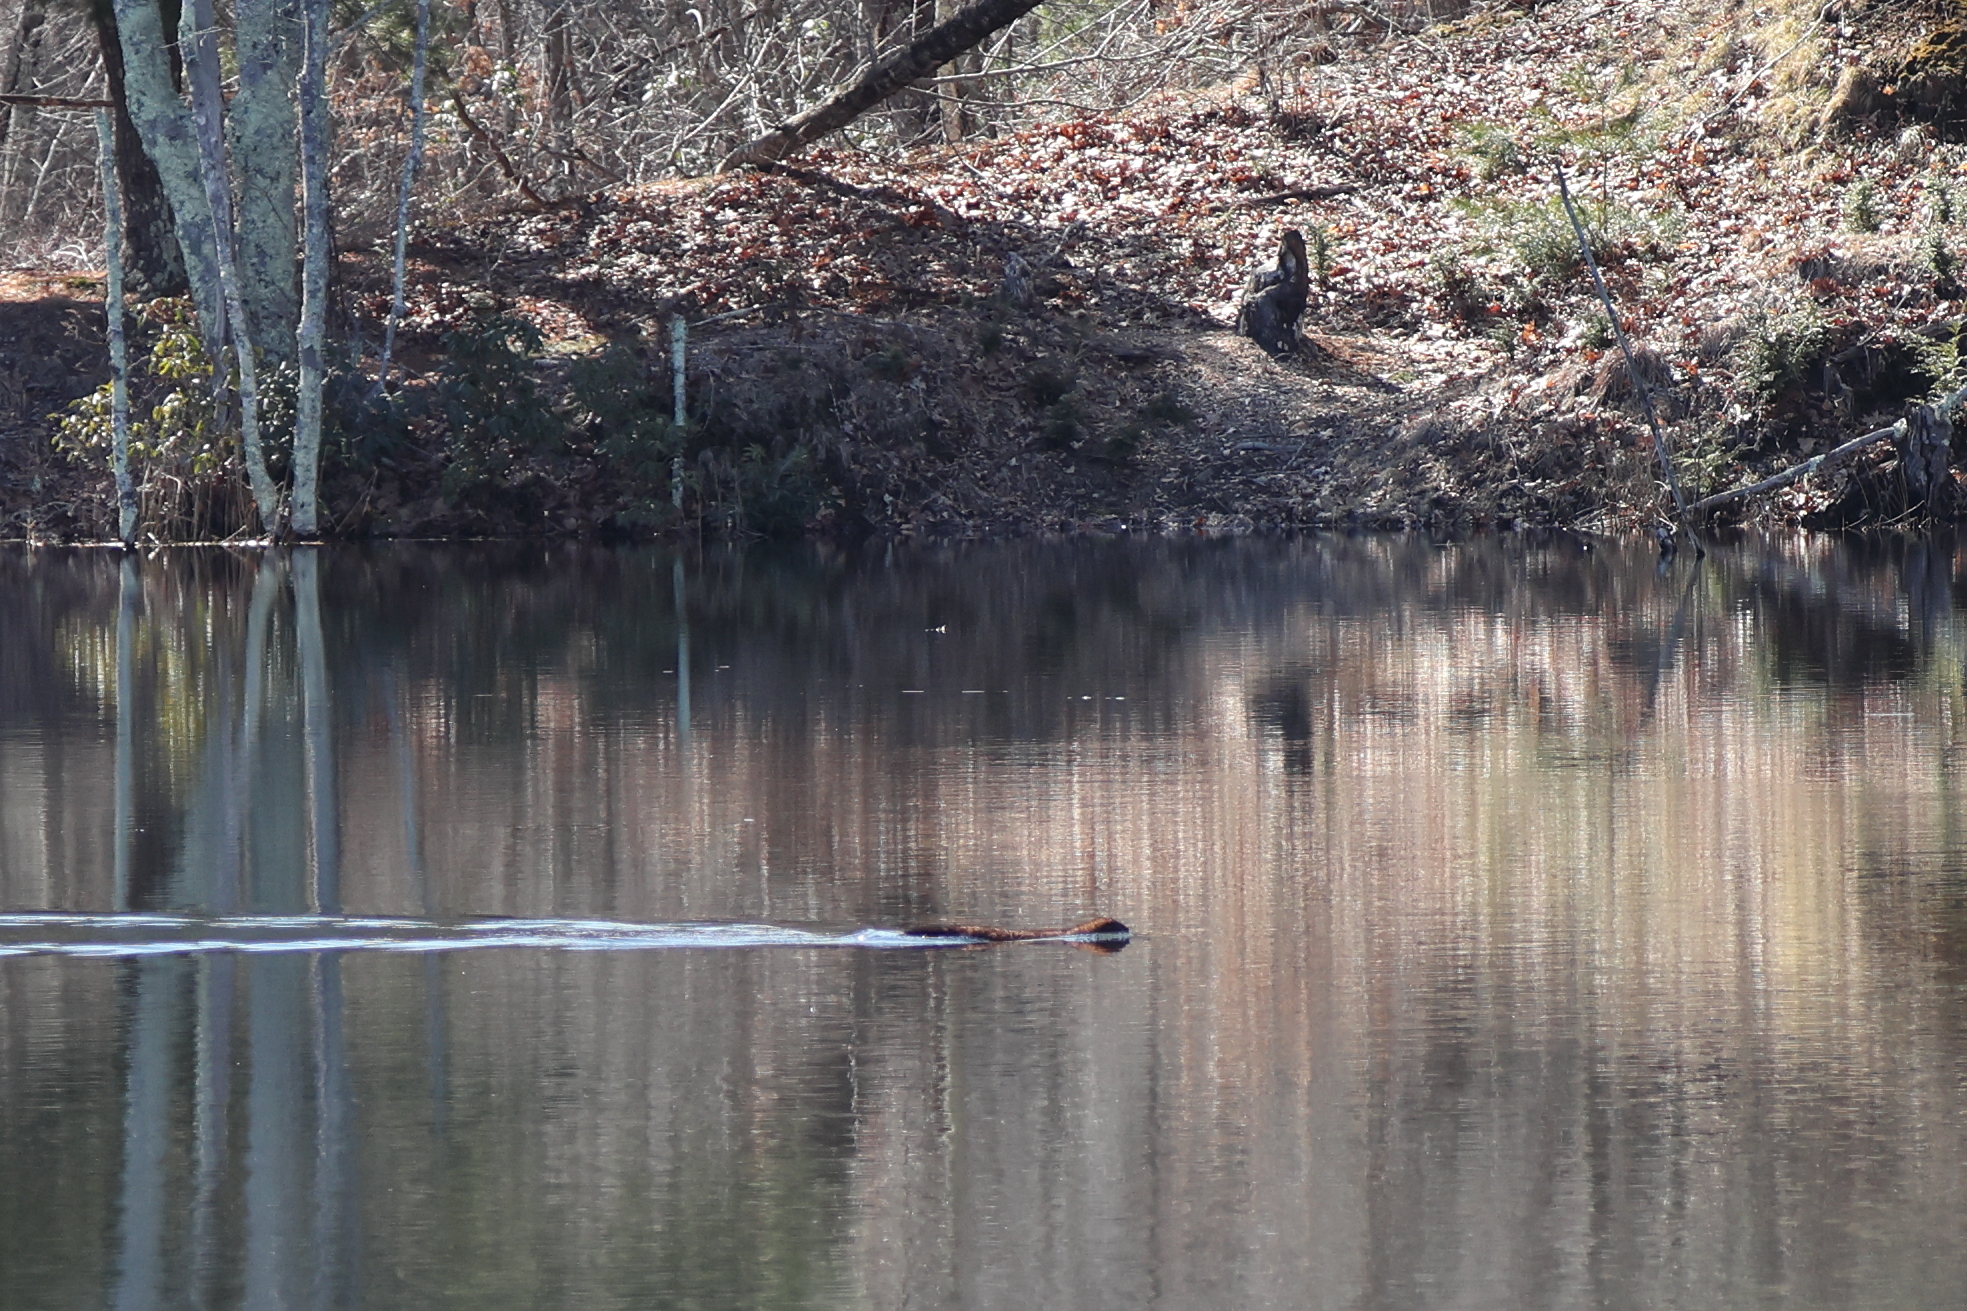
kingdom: Animalia
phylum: Chordata
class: Mammalia
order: Carnivora
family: Mustelidae
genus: Mustela
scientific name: Mustela
